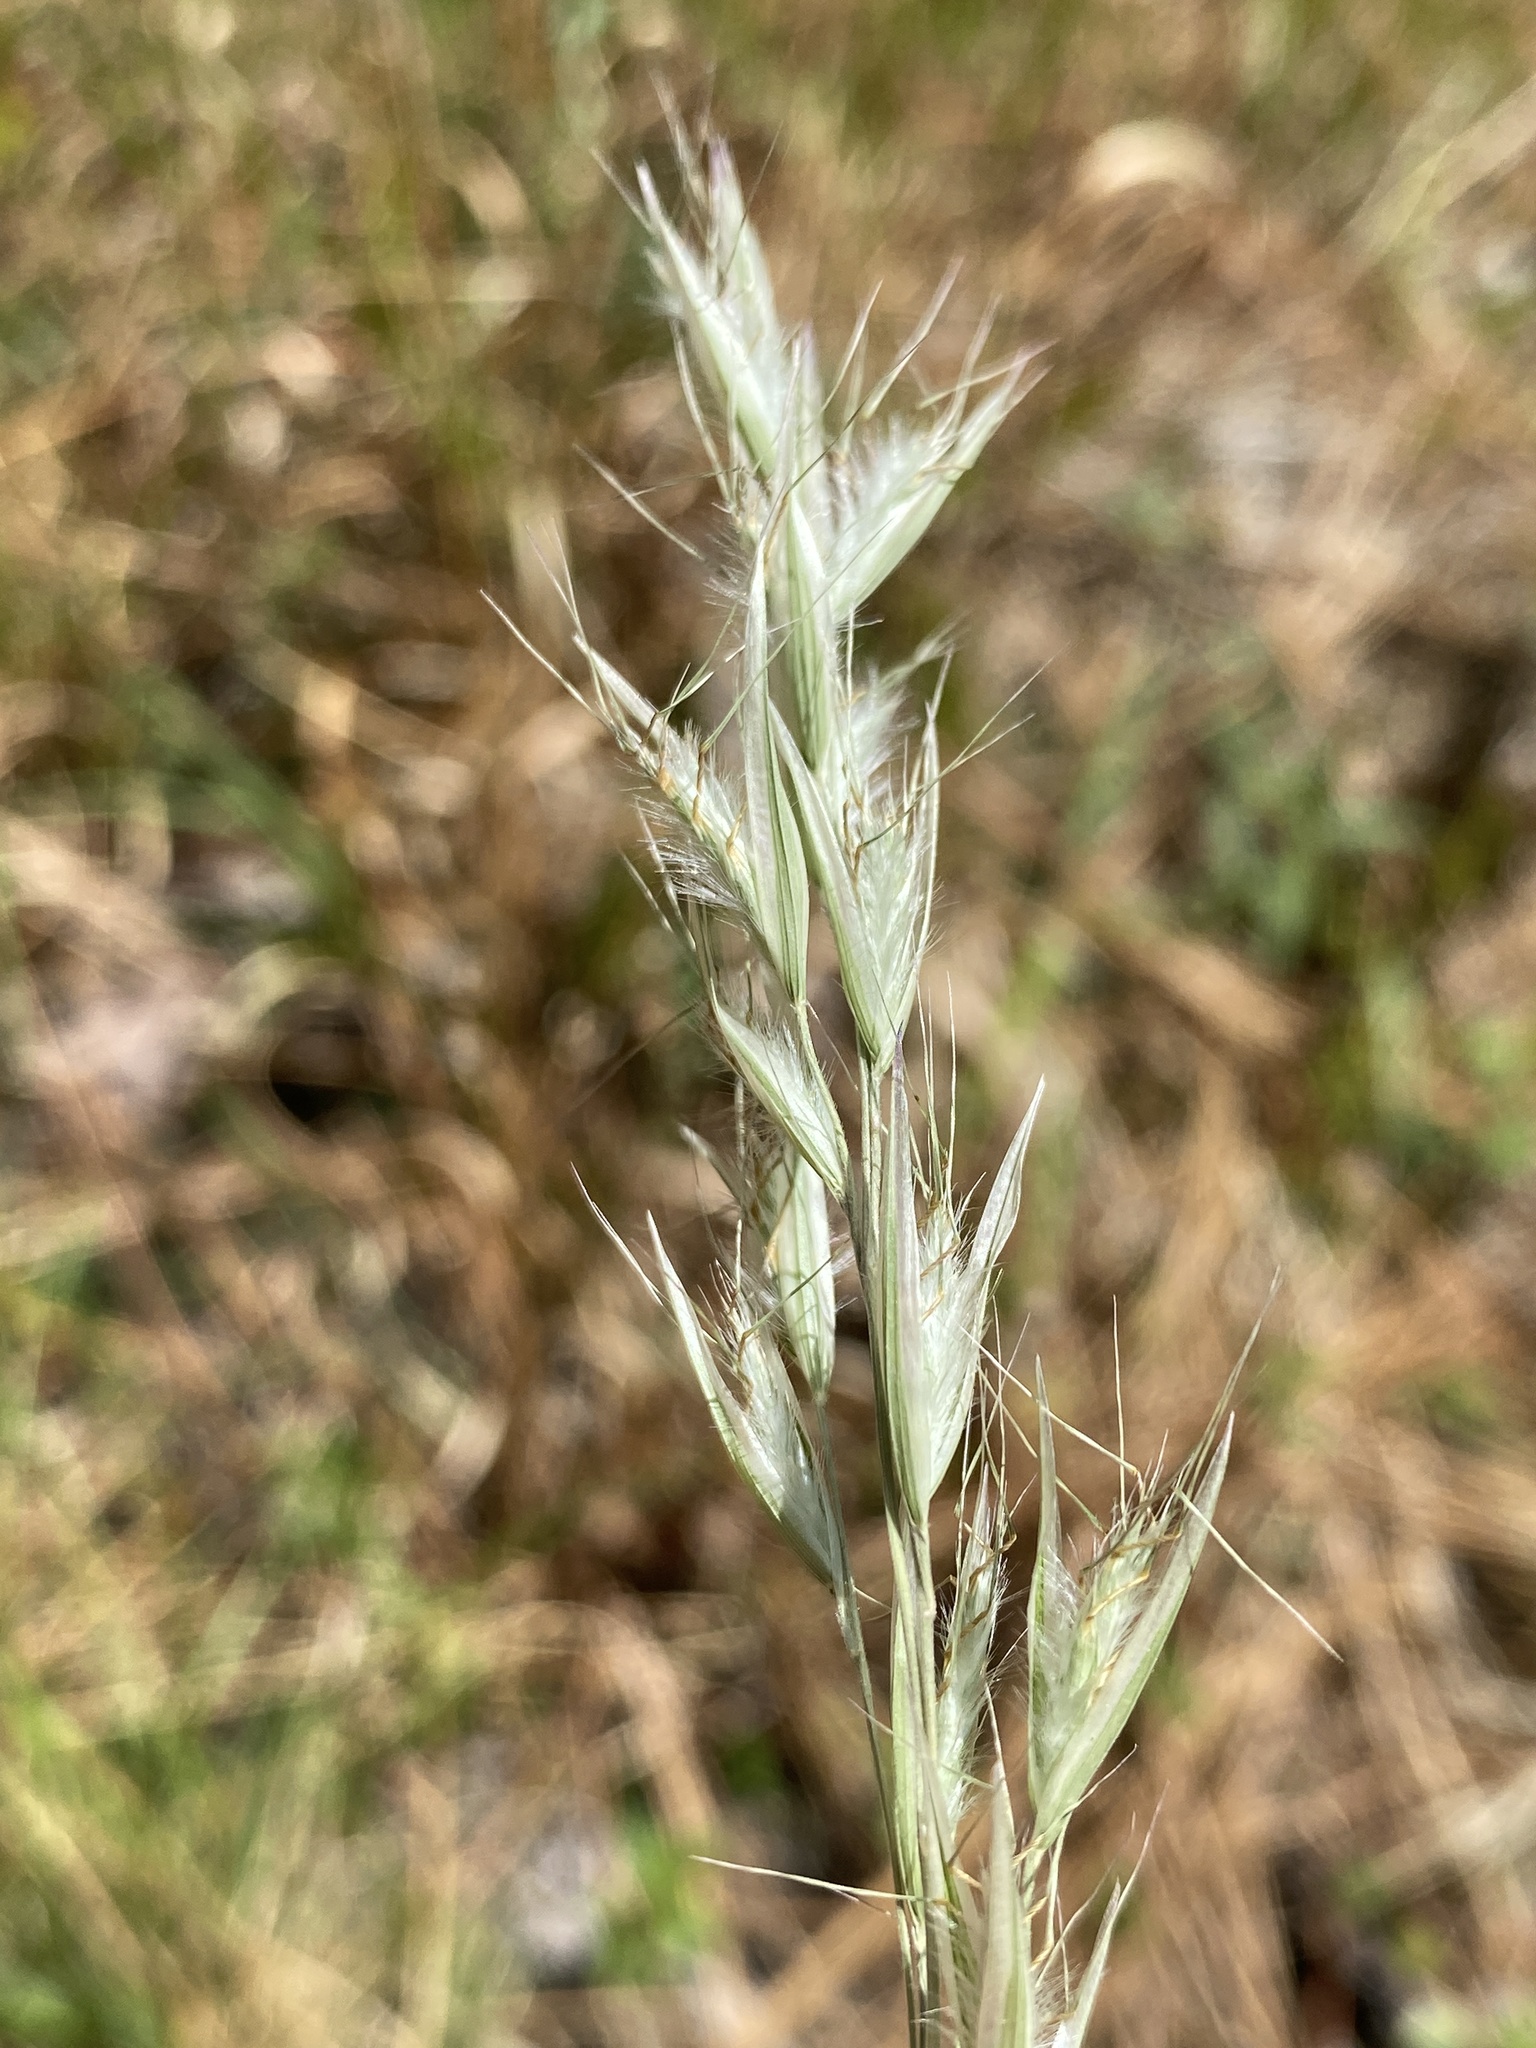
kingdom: Plantae
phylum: Tracheophyta
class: Liliopsida
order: Poales
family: Poaceae
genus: Danthonia
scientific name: Danthonia sericea
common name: Downy danthonia
